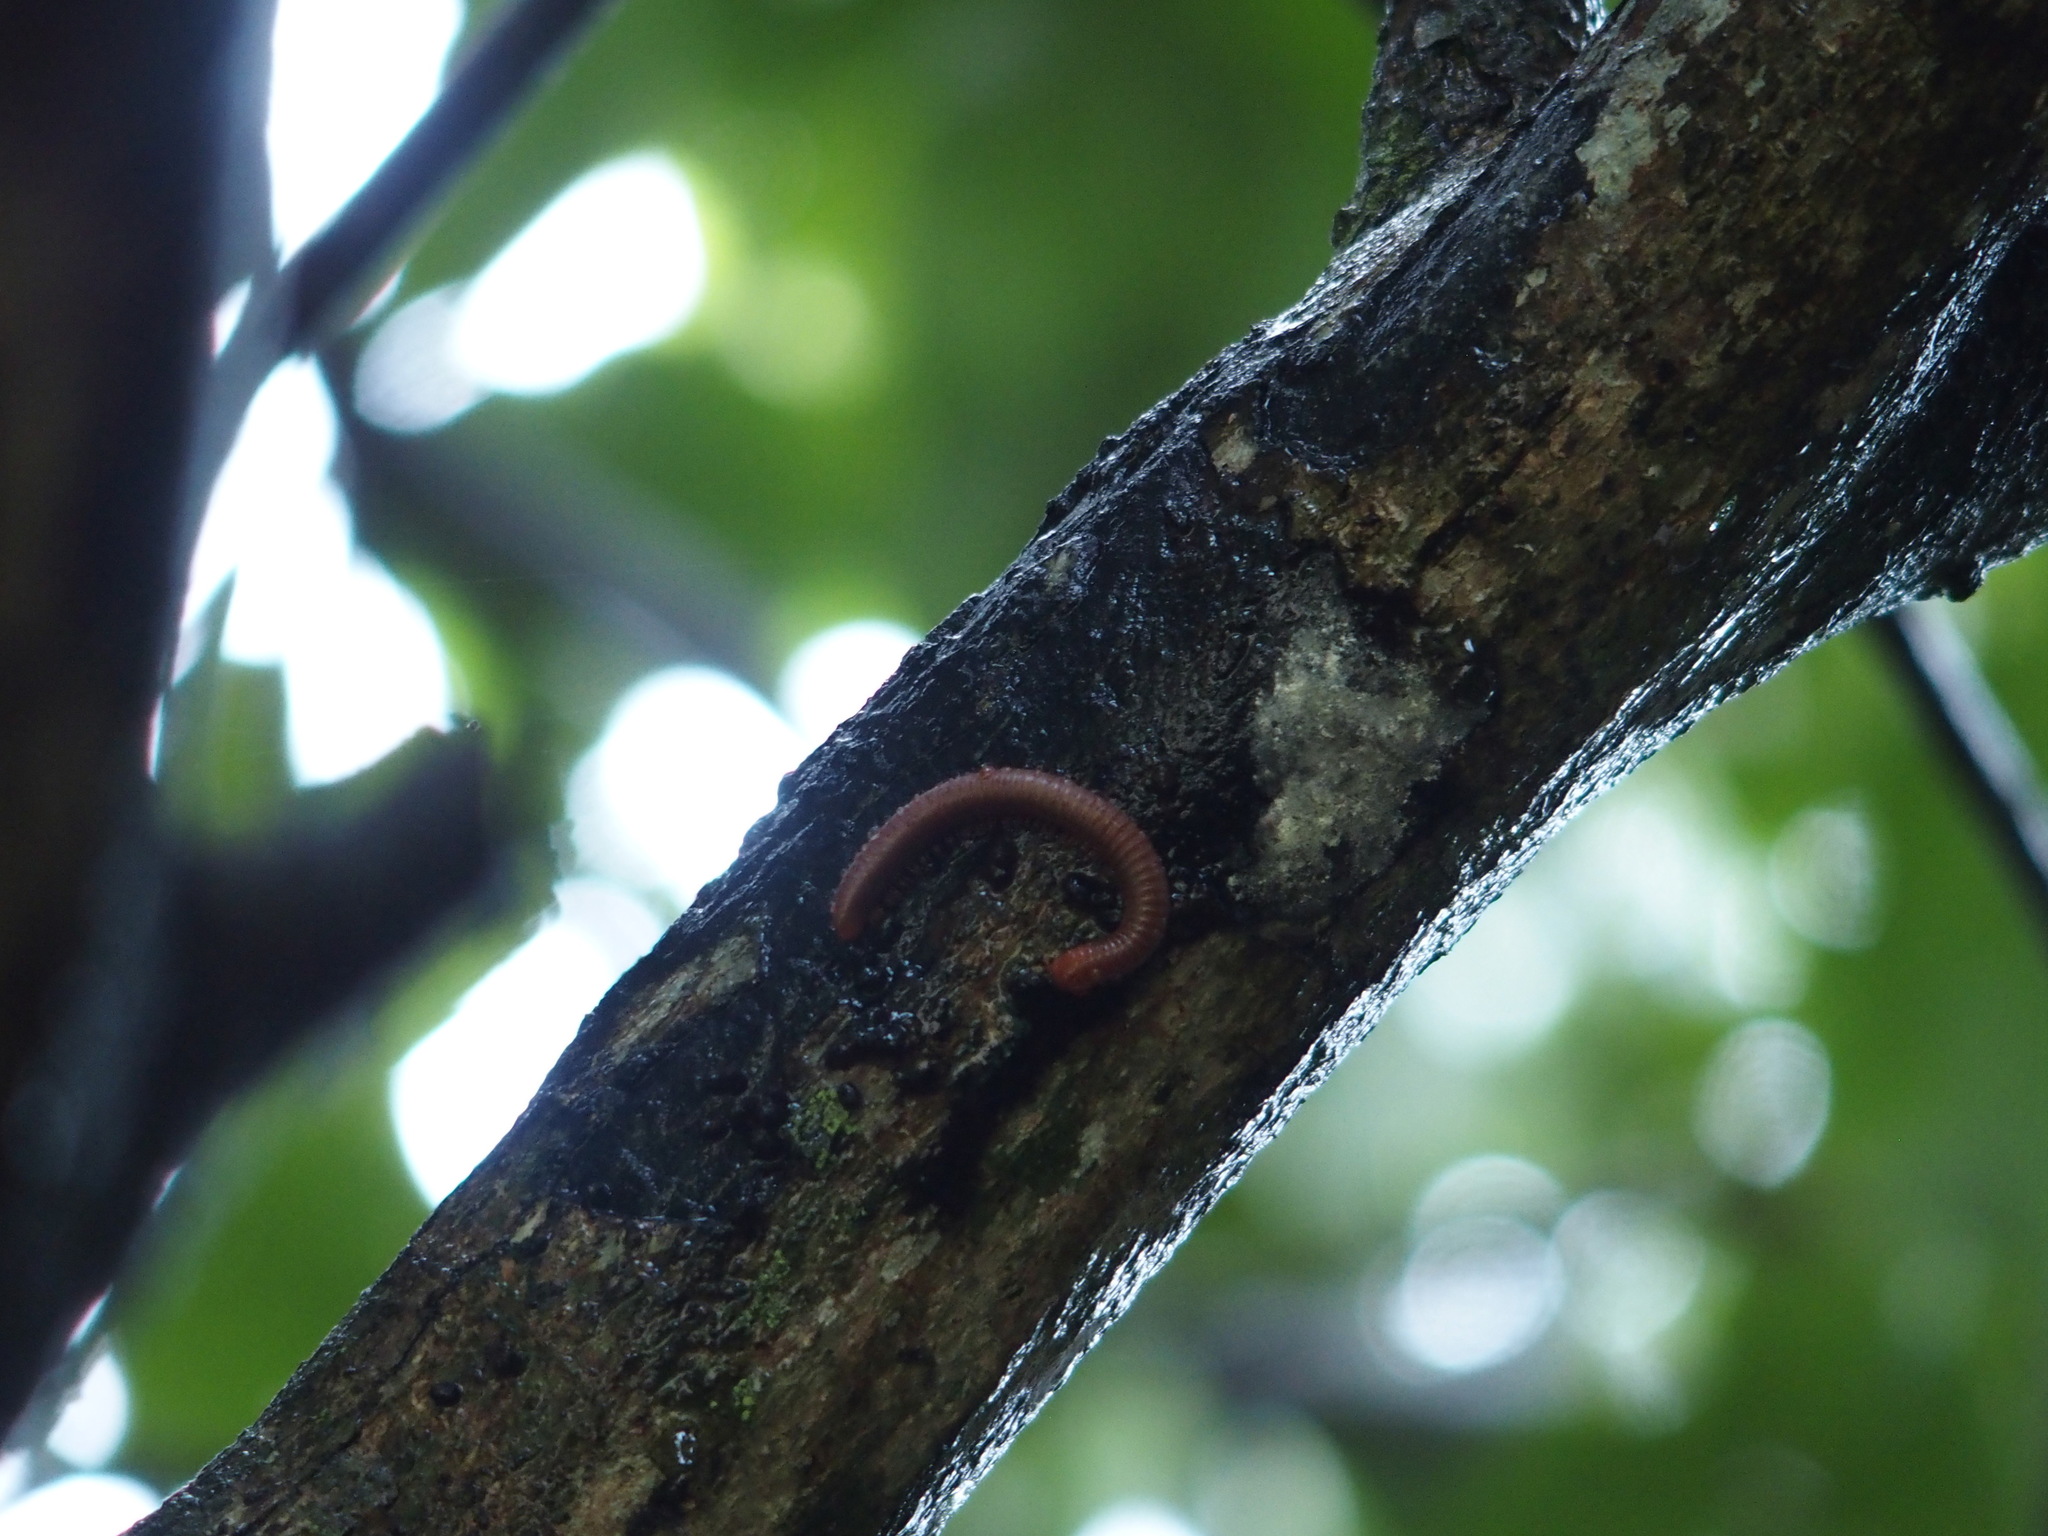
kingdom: Animalia
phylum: Arthropoda
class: Diplopoda
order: Spirobolida
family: Pachybolidae
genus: Trigoniulus
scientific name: Trigoniulus corallinus
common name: Millipede
